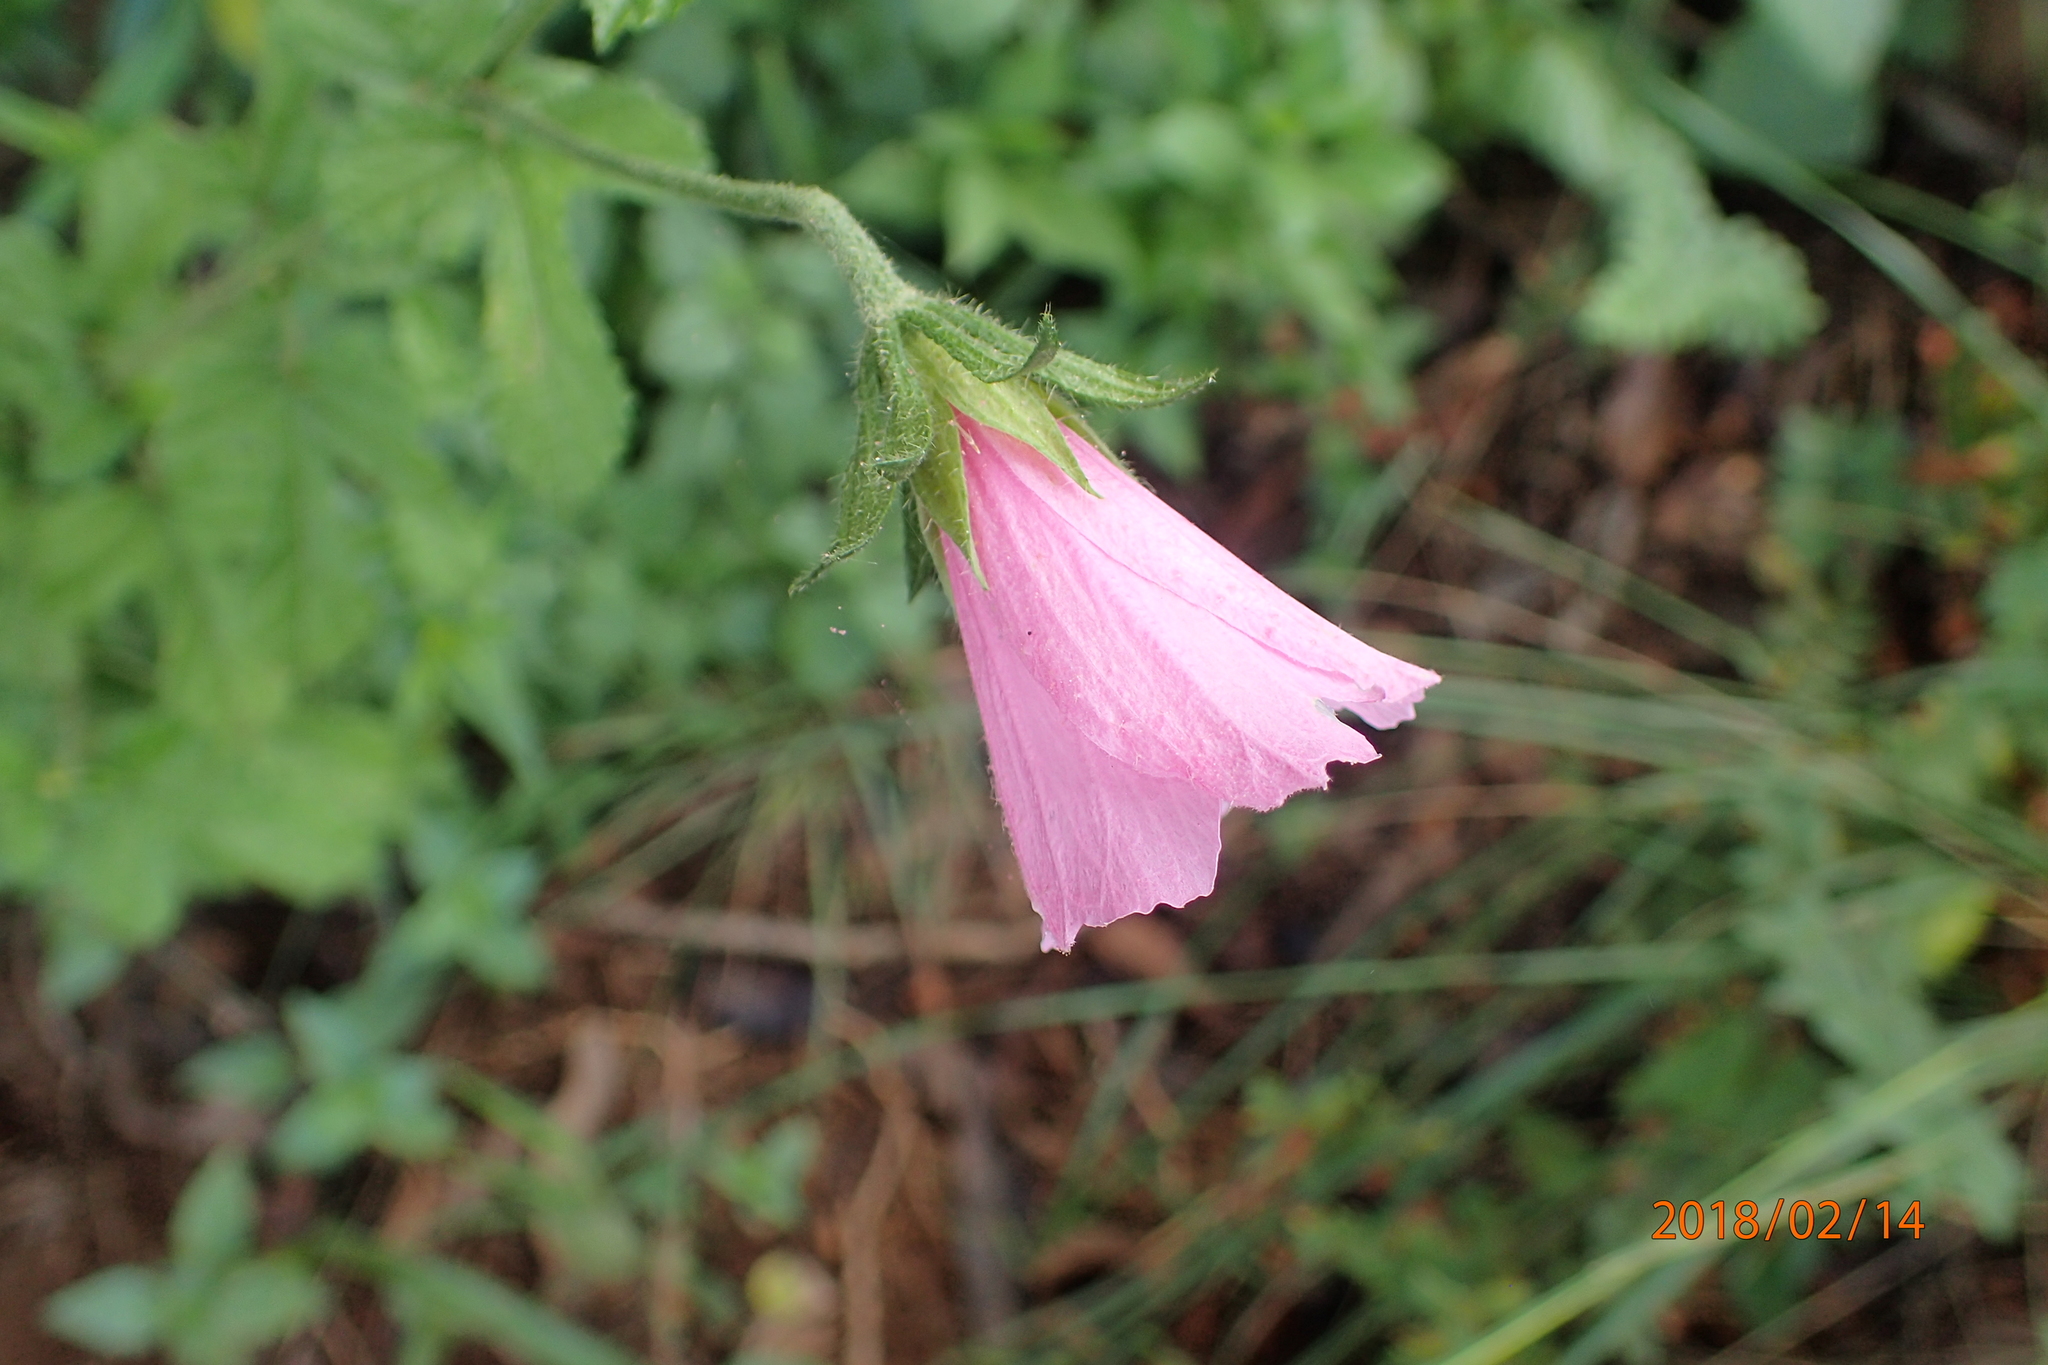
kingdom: Plantae
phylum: Tracheophyta
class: Magnoliopsida
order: Malvales
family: Malvaceae
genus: Hibiscus
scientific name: Hibiscus pedunculatus
